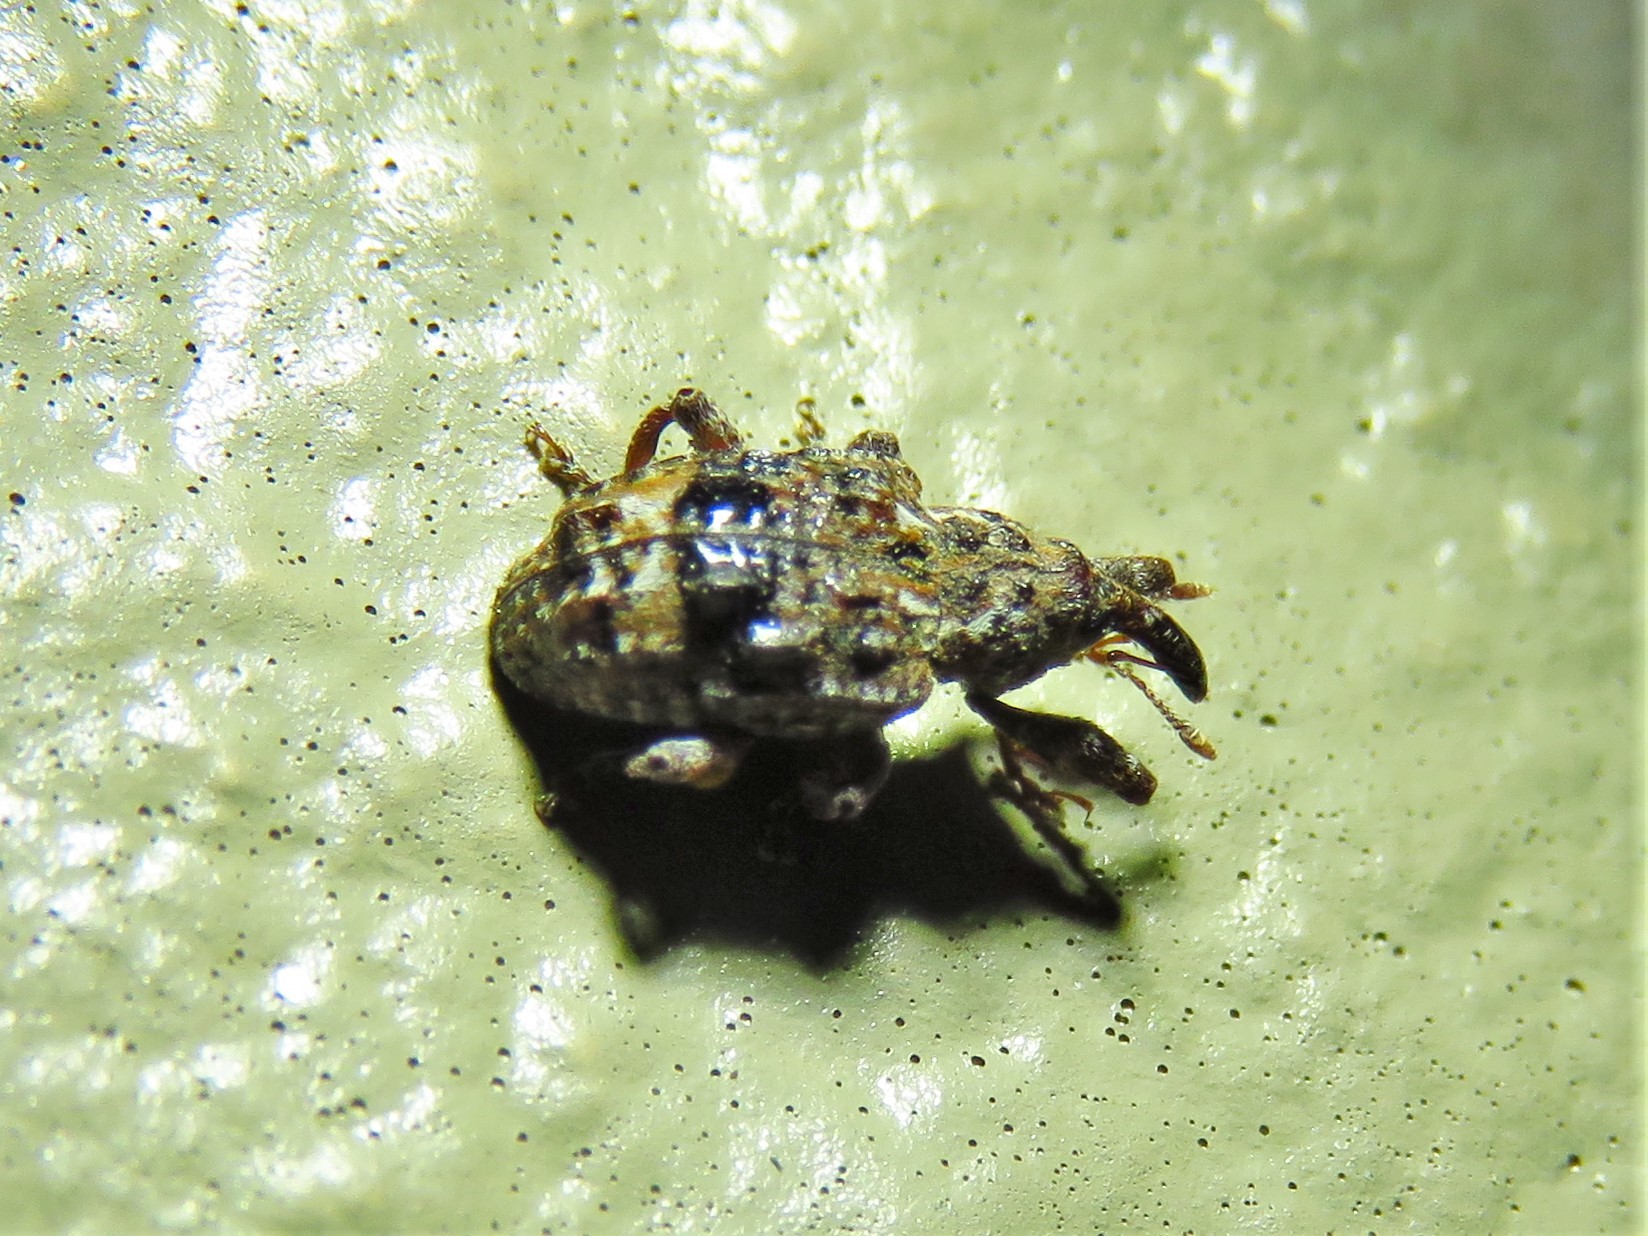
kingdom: Animalia
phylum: Arthropoda
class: Insecta
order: Coleoptera
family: Curculionidae
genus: Conotrachelus
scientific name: Conotrachelus nenuphar
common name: Plum curculio
